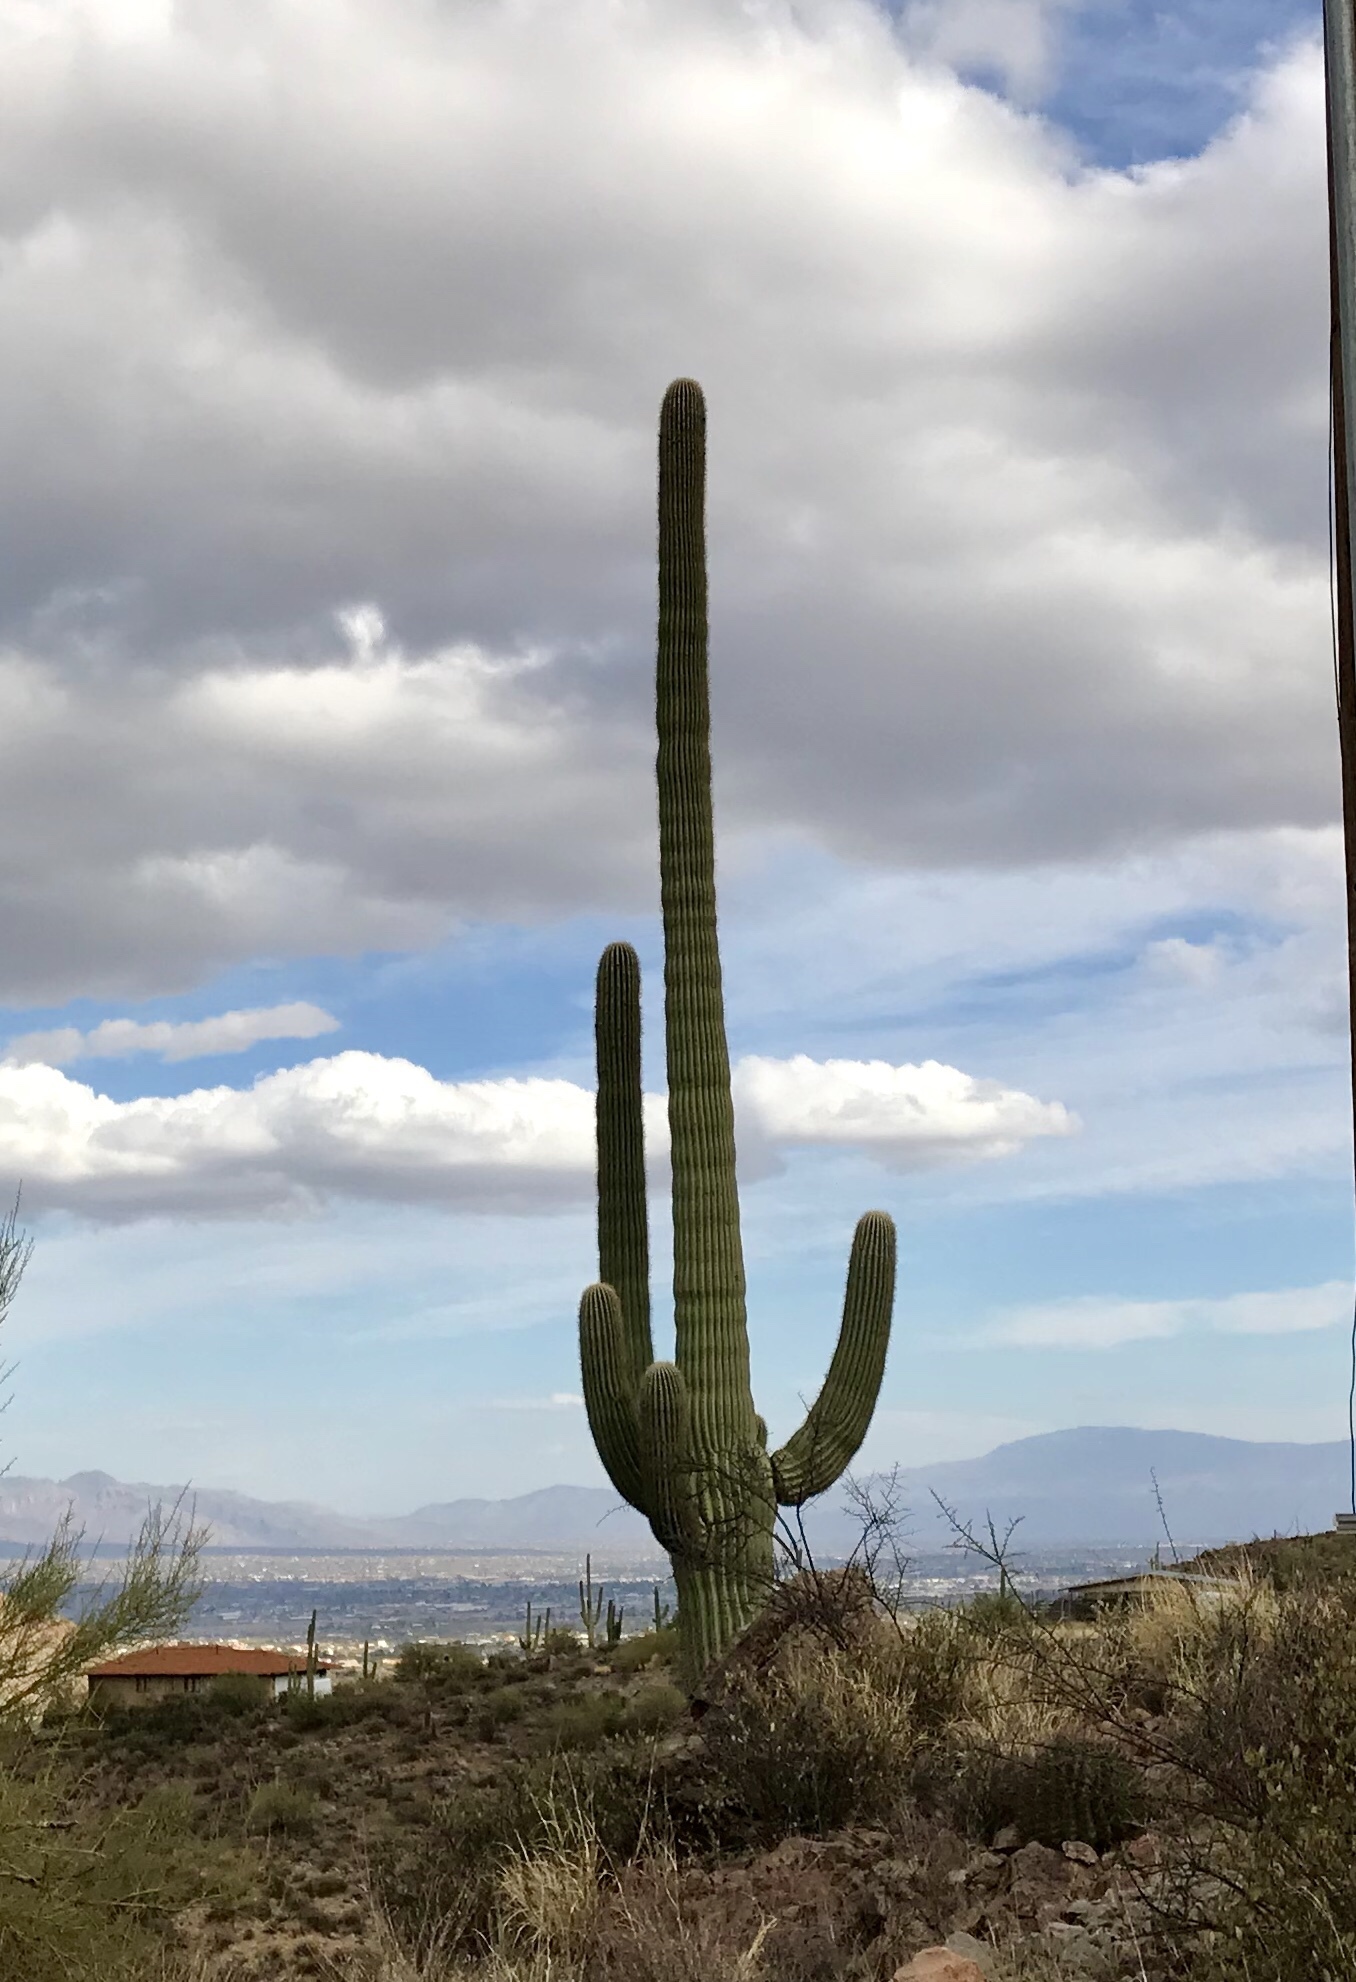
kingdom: Plantae
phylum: Tracheophyta
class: Magnoliopsida
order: Caryophyllales
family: Cactaceae
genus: Carnegiea
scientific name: Carnegiea gigantea
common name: Saguaro
